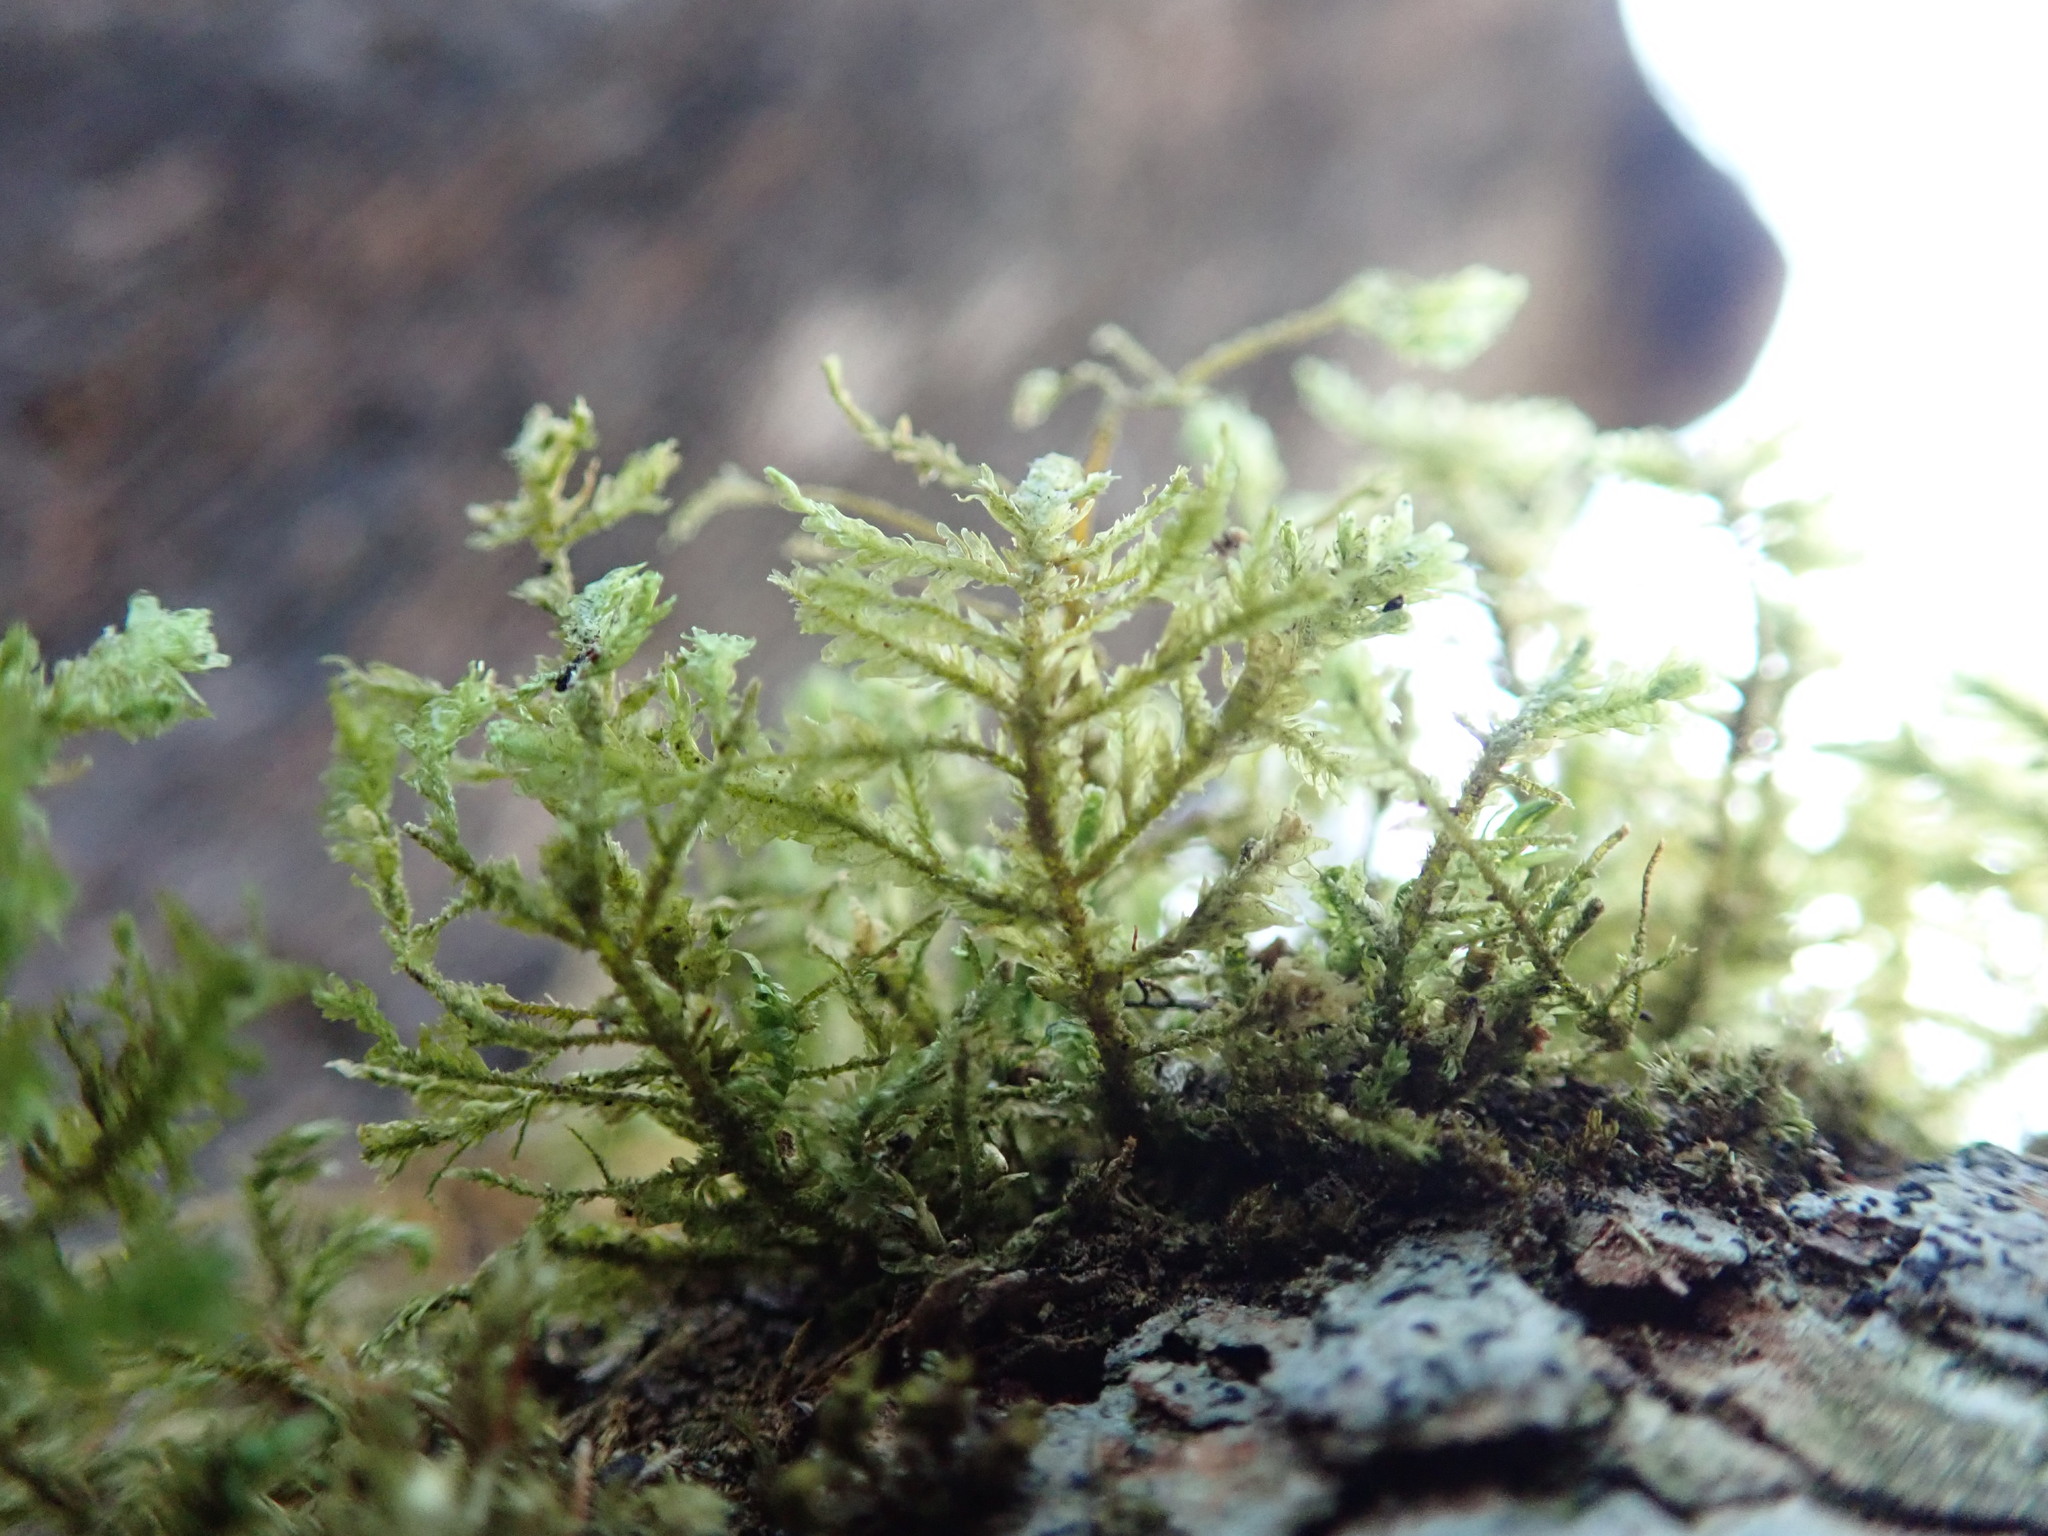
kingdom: Plantae
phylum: Bryophyta
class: Bryopsida
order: Hypnales
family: Neckeraceae
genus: Metaneckera
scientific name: Metaneckera menziesii
